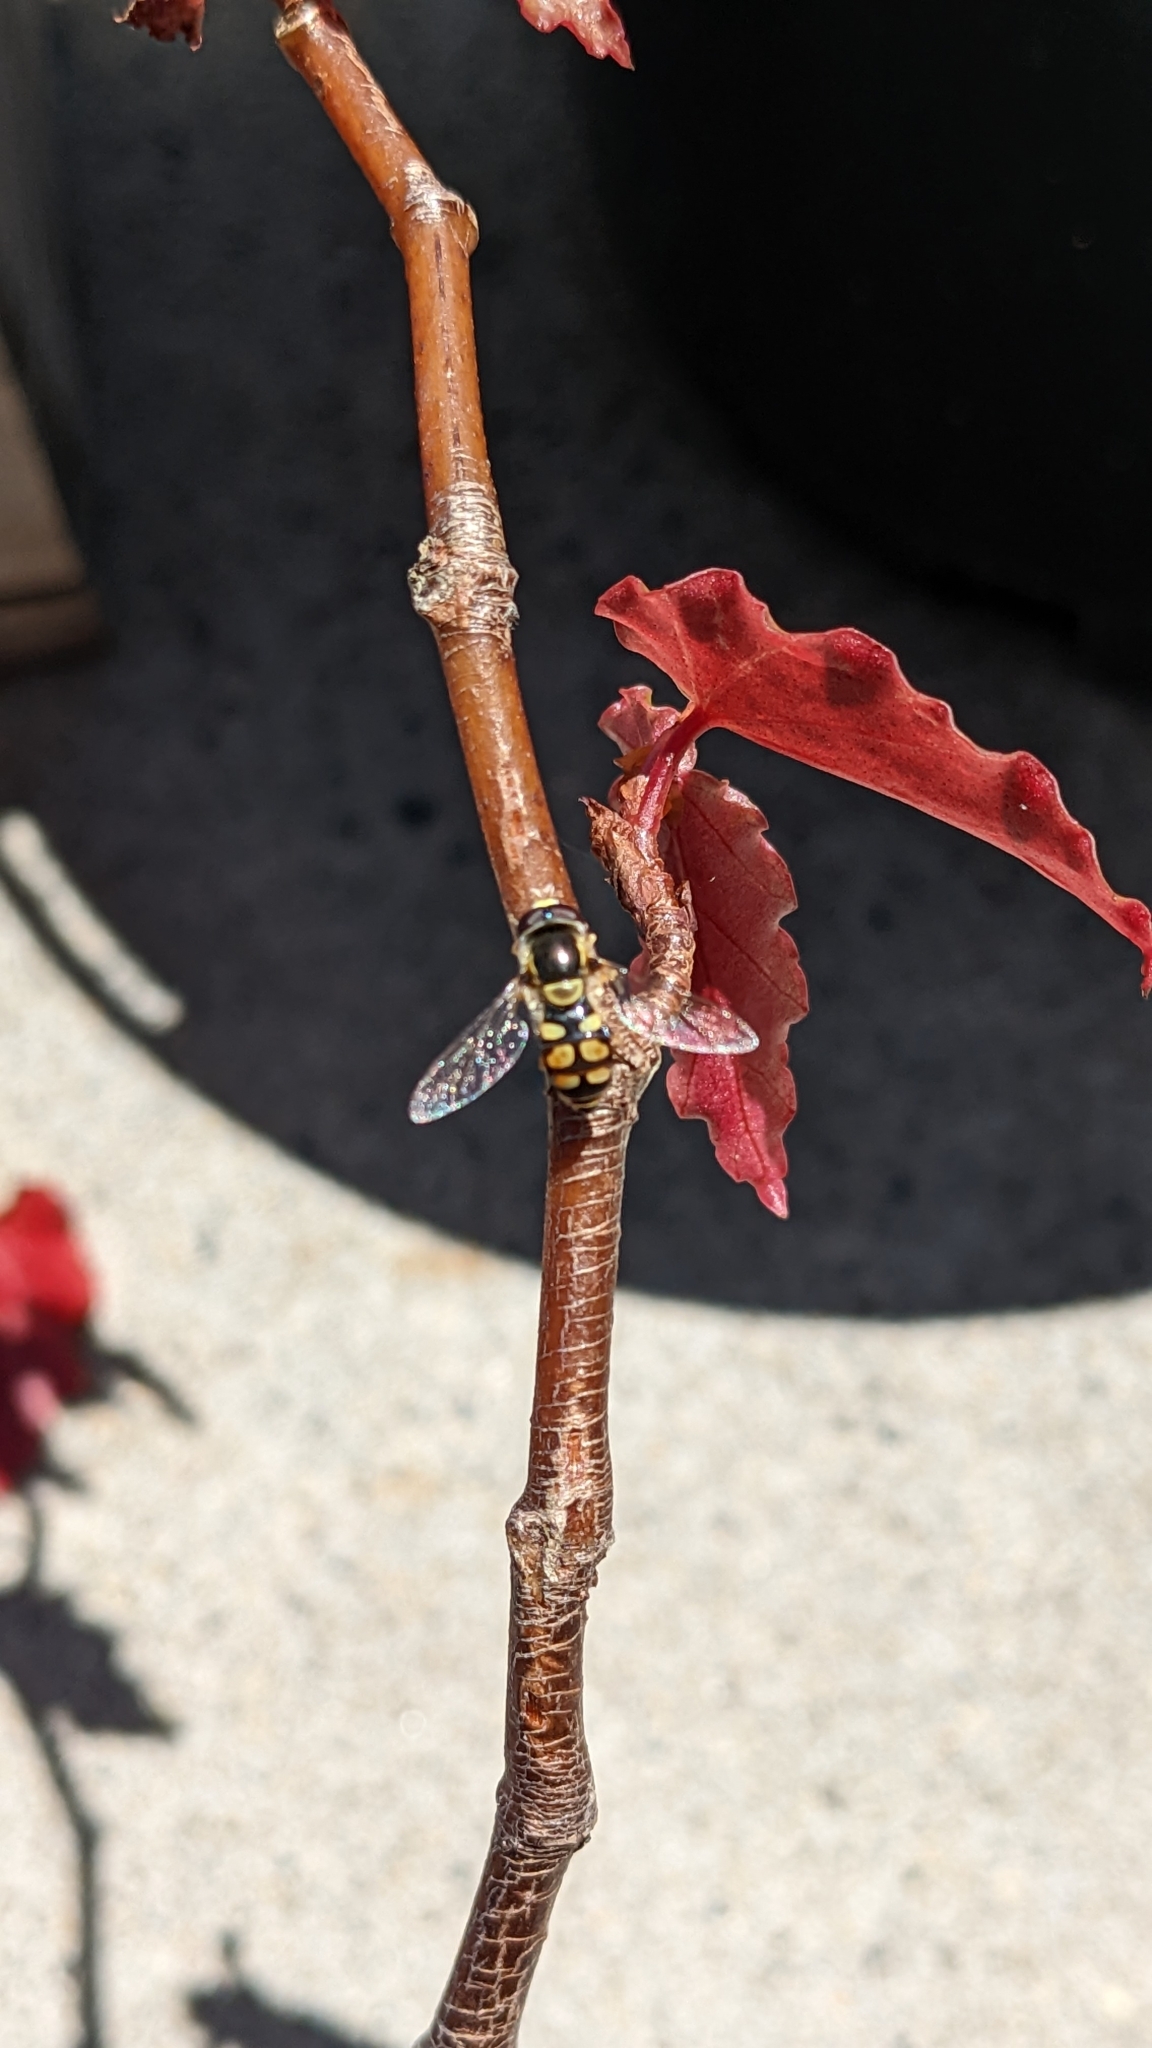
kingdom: Animalia
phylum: Arthropoda
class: Insecta
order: Diptera
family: Syrphidae
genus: Simosyrphus
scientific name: Simosyrphus grandicornis
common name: Hoverfly
